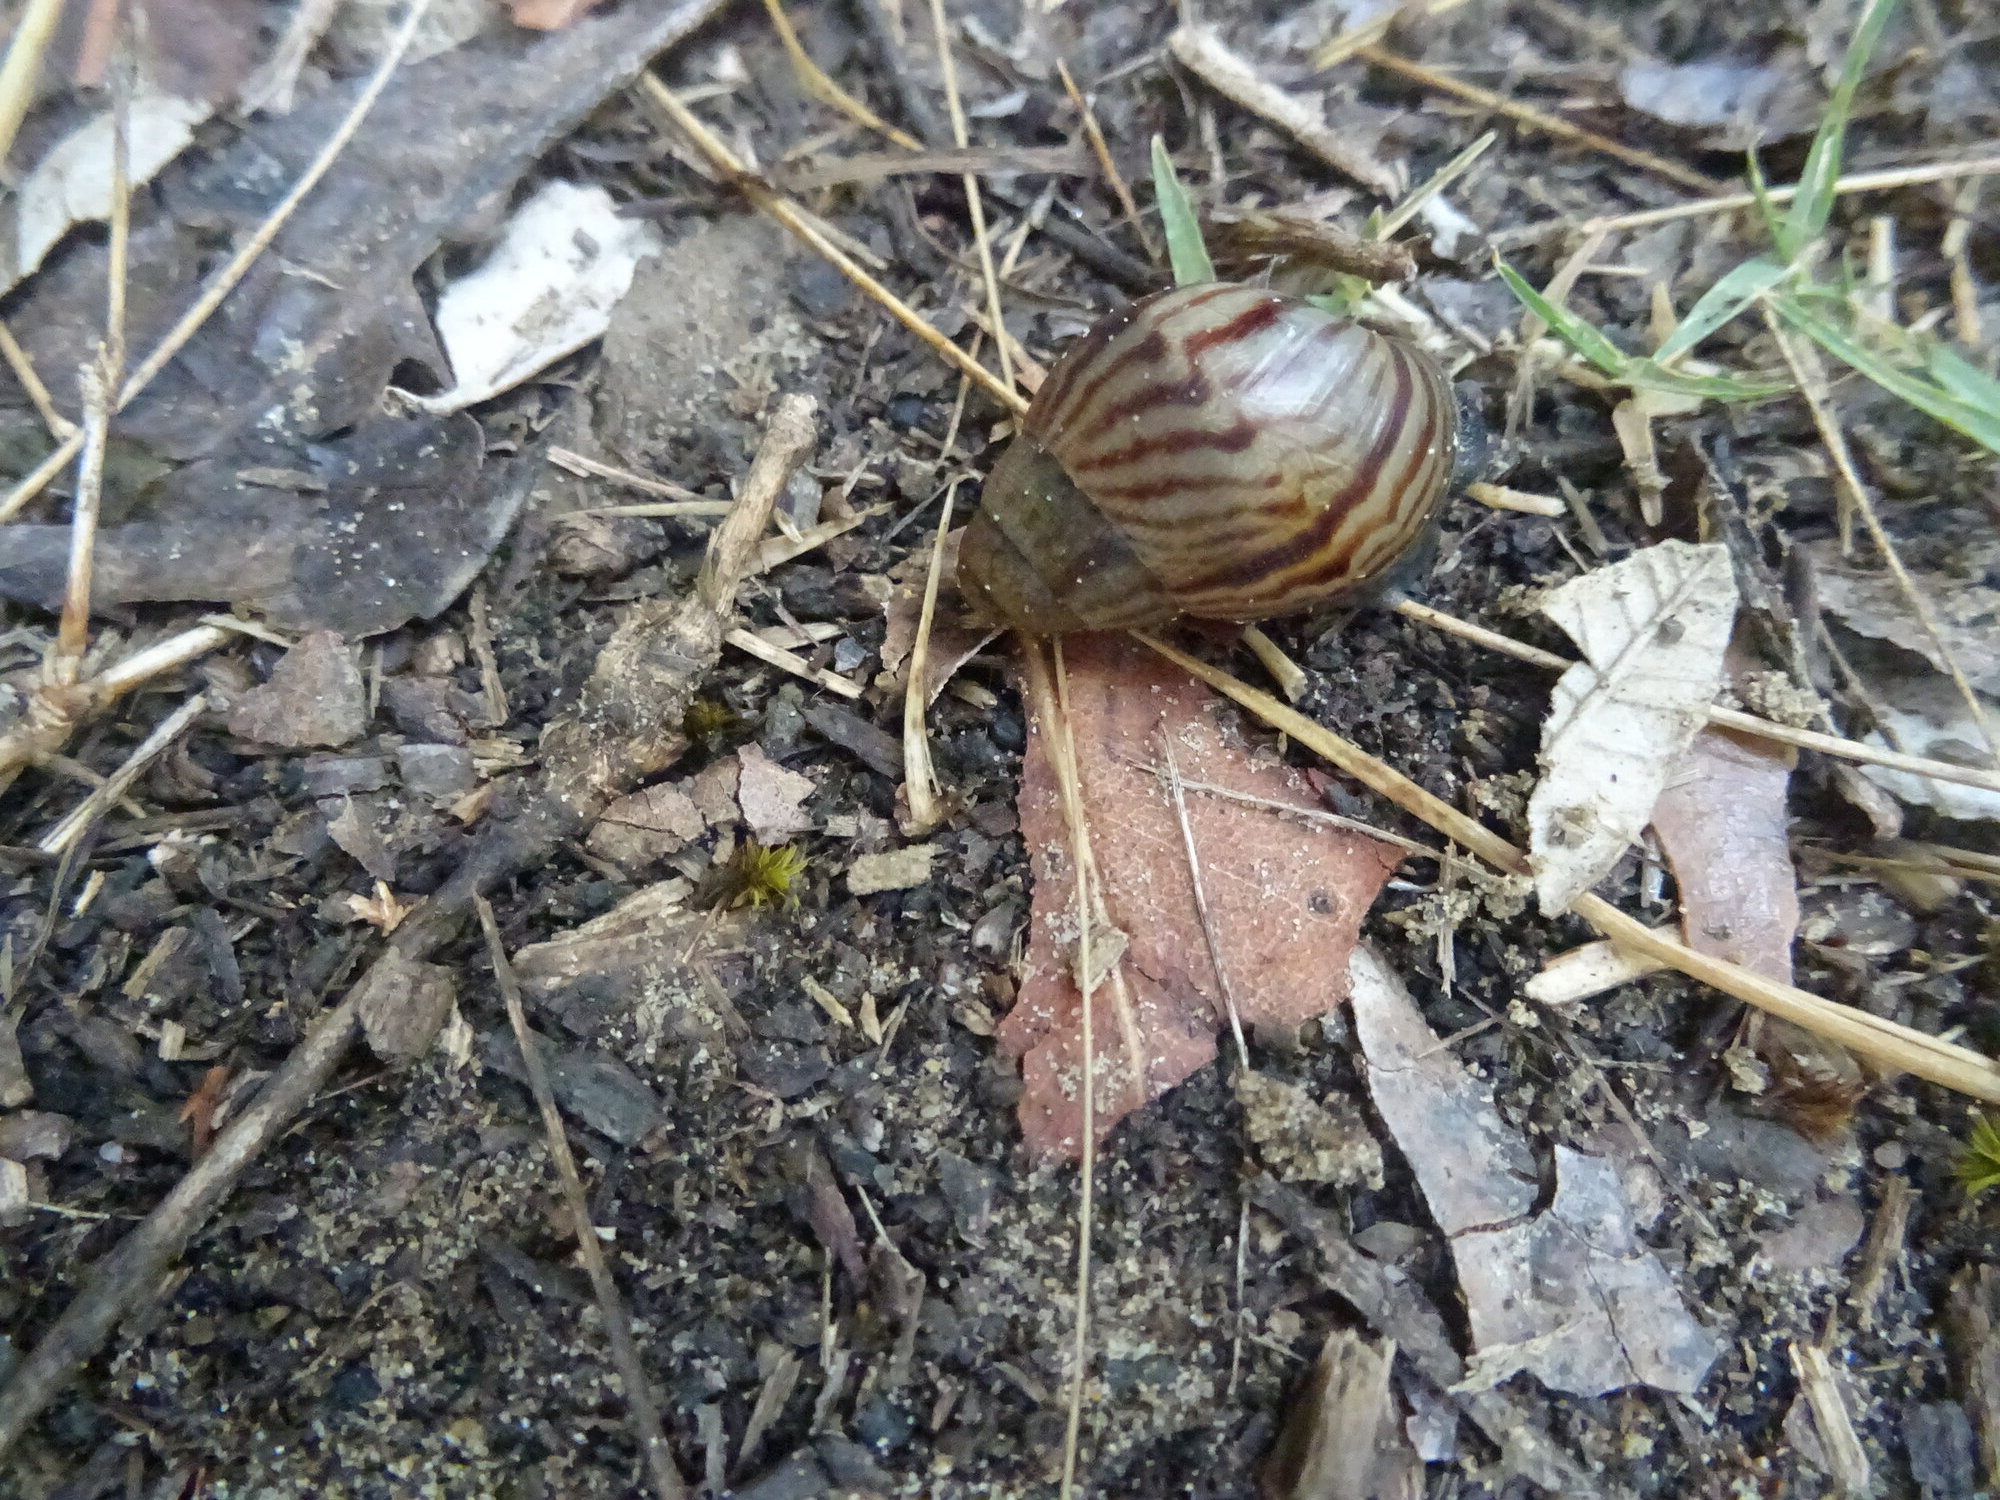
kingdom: Animalia
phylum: Mollusca
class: Gastropoda
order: Stylommatophora
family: Achatinidae
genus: Cochlitoma
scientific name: Cochlitoma zebra
